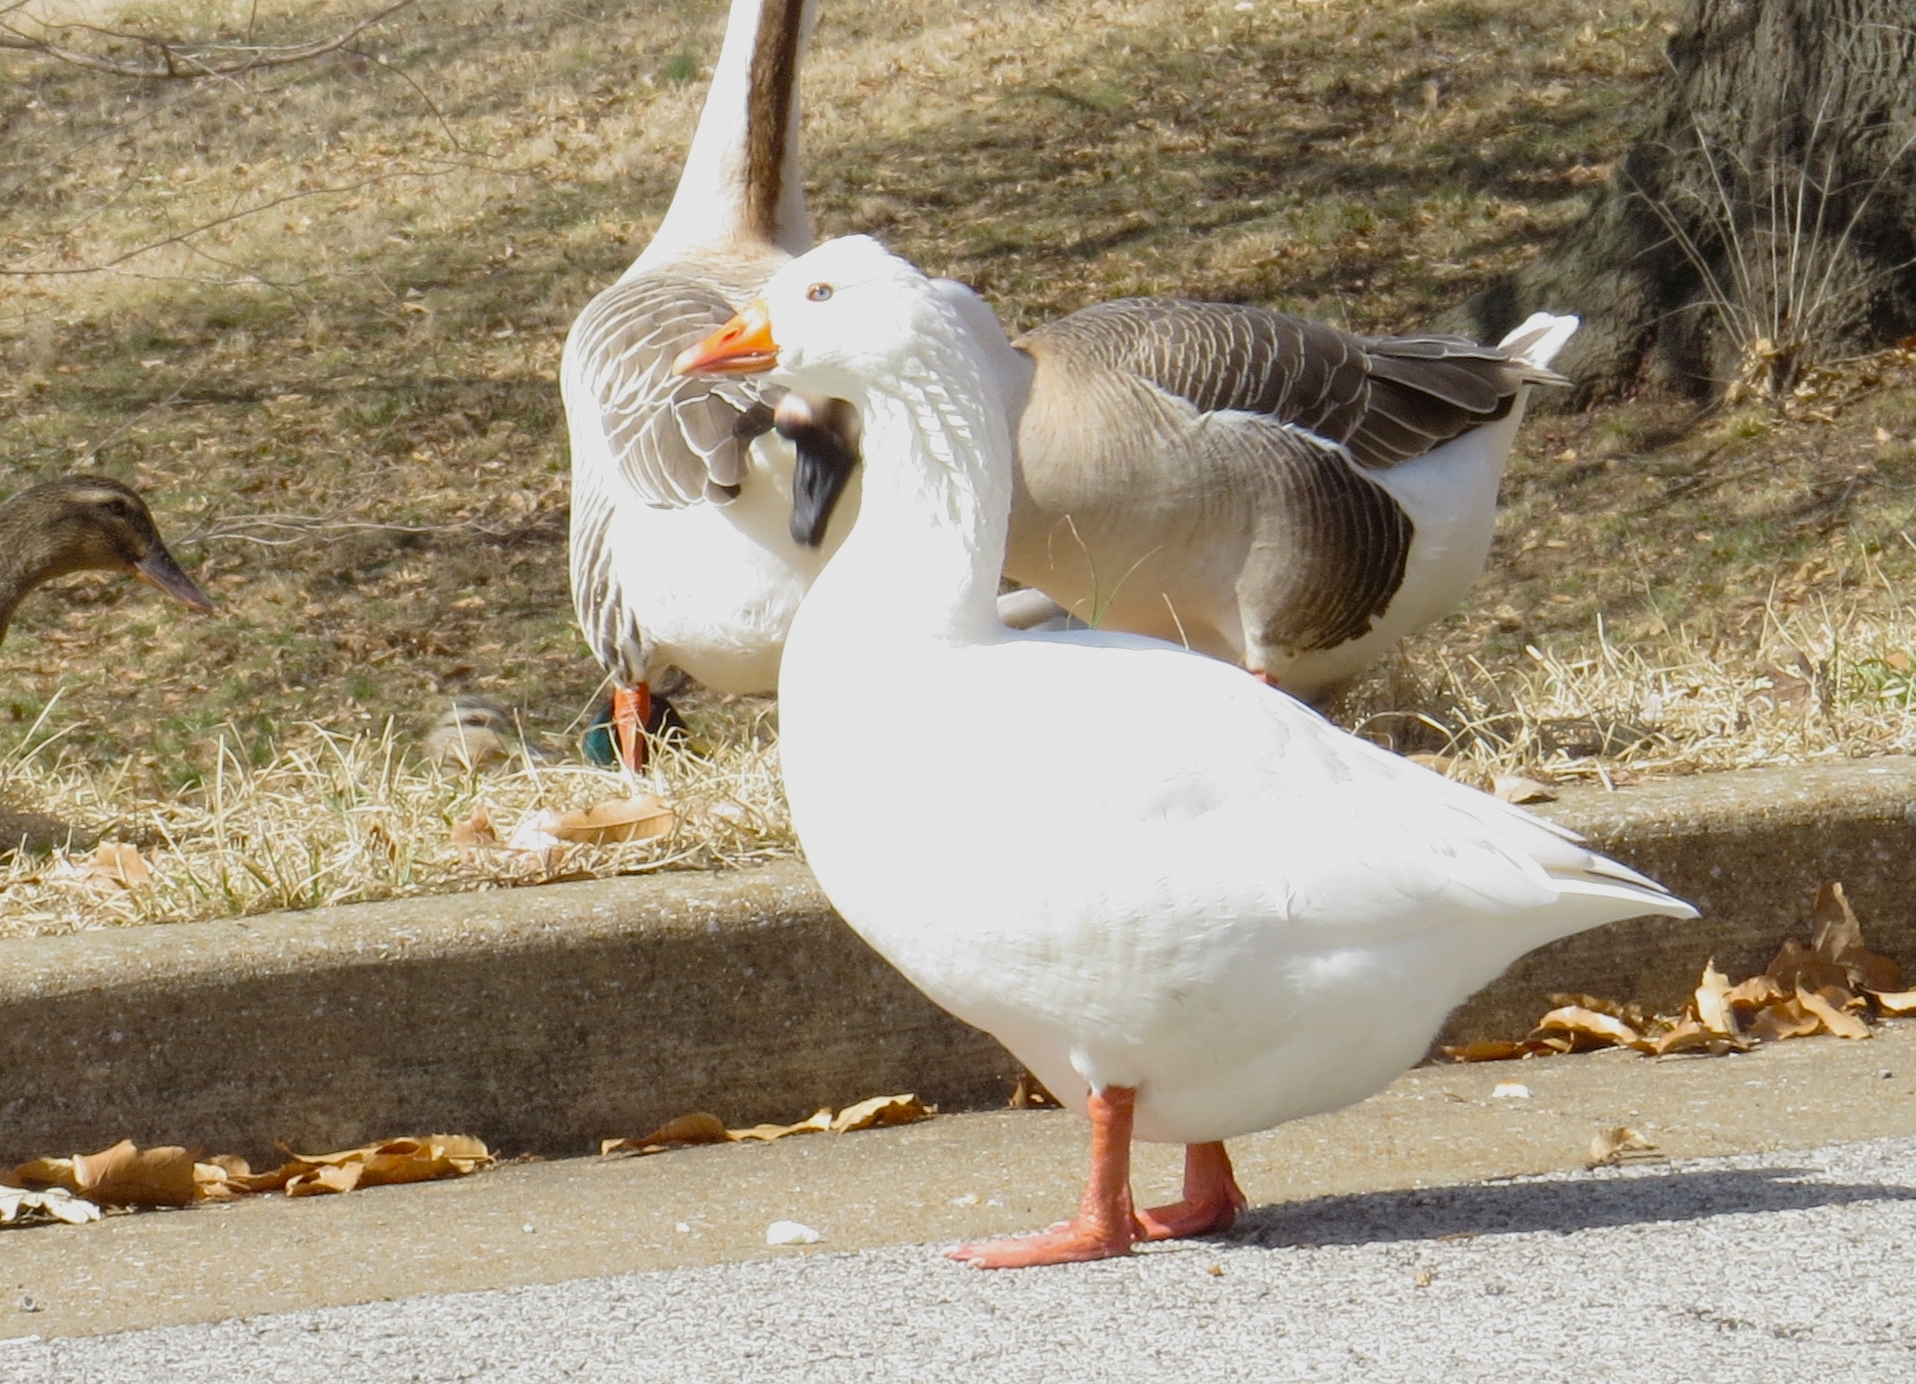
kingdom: Animalia
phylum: Chordata
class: Aves
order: Anseriformes
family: Anatidae
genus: Anser
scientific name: Anser anser
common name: Greylag goose
